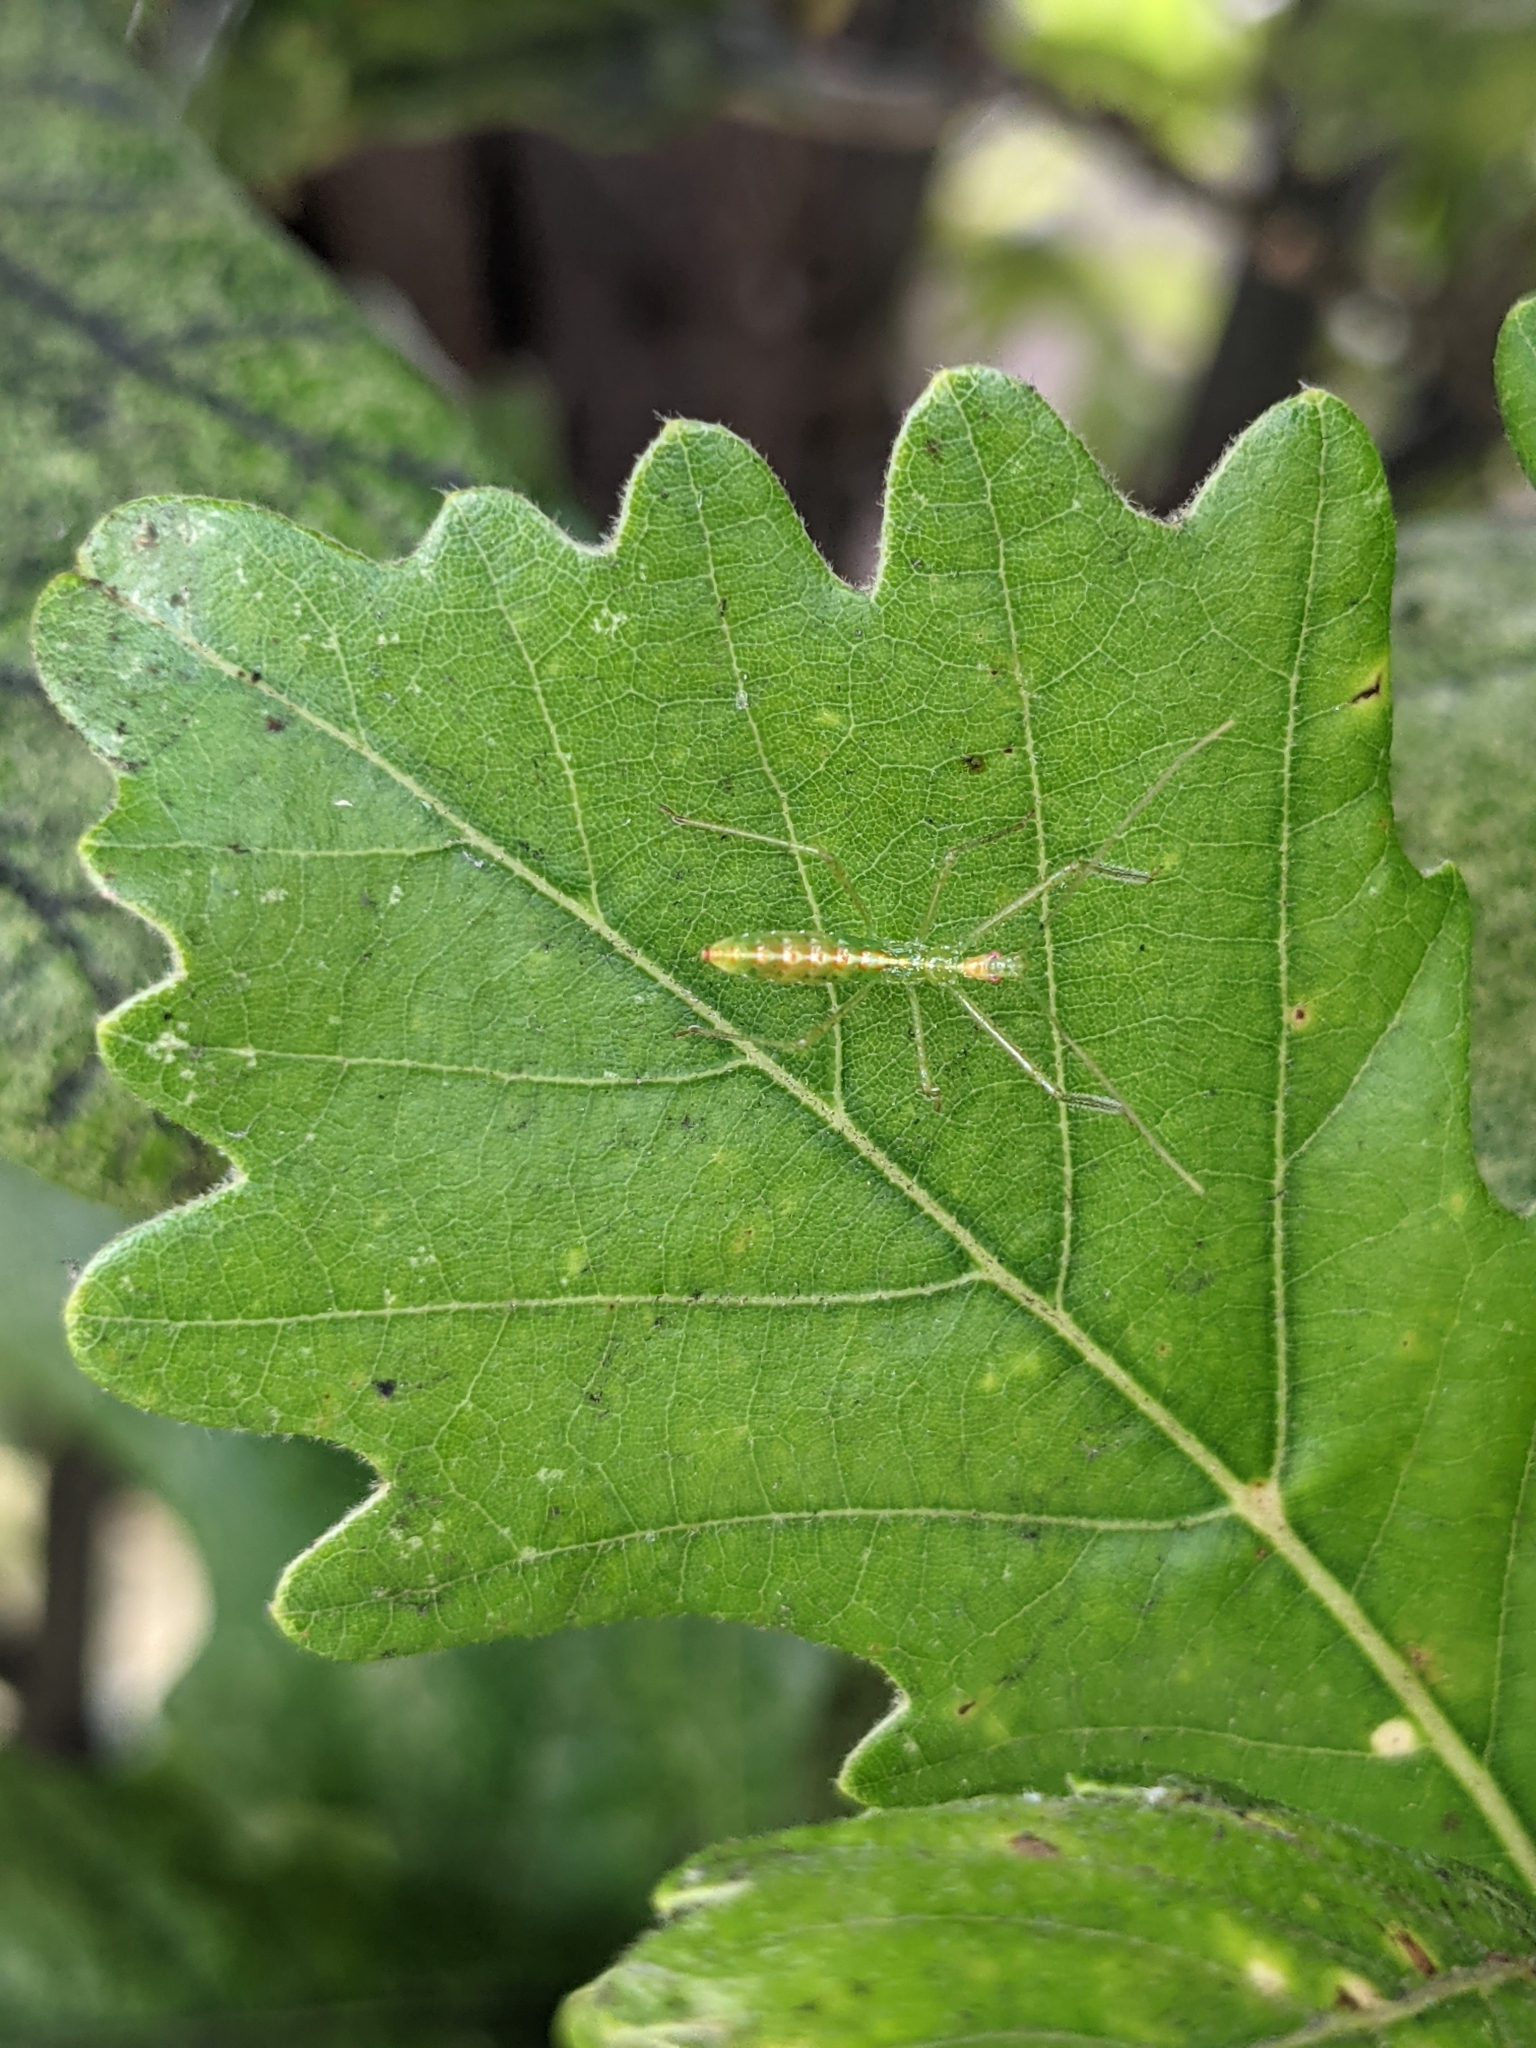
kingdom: Animalia
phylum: Arthropoda
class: Insecta
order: Hemiptera
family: Reduviidae
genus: Zelus
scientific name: Zelus luridus
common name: Pale green assassin bug
